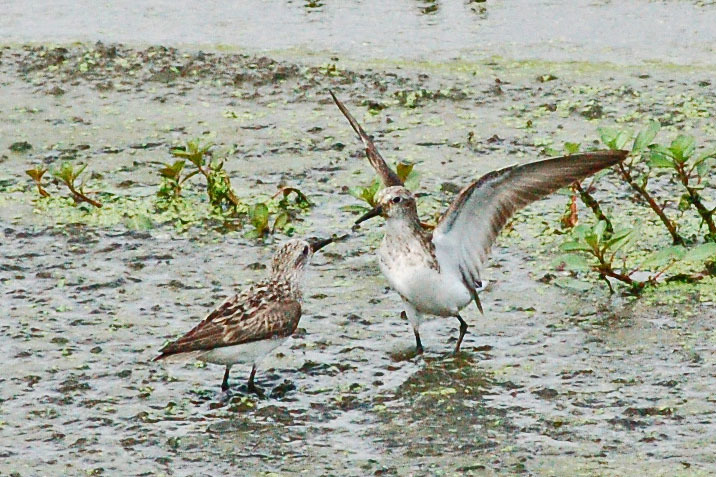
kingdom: Animalia
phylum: Chordata
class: Aves
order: Charadriiformes
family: Scolopacidae
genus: Calidris
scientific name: Calidris pusilla
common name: Semipalmated sandpiper
